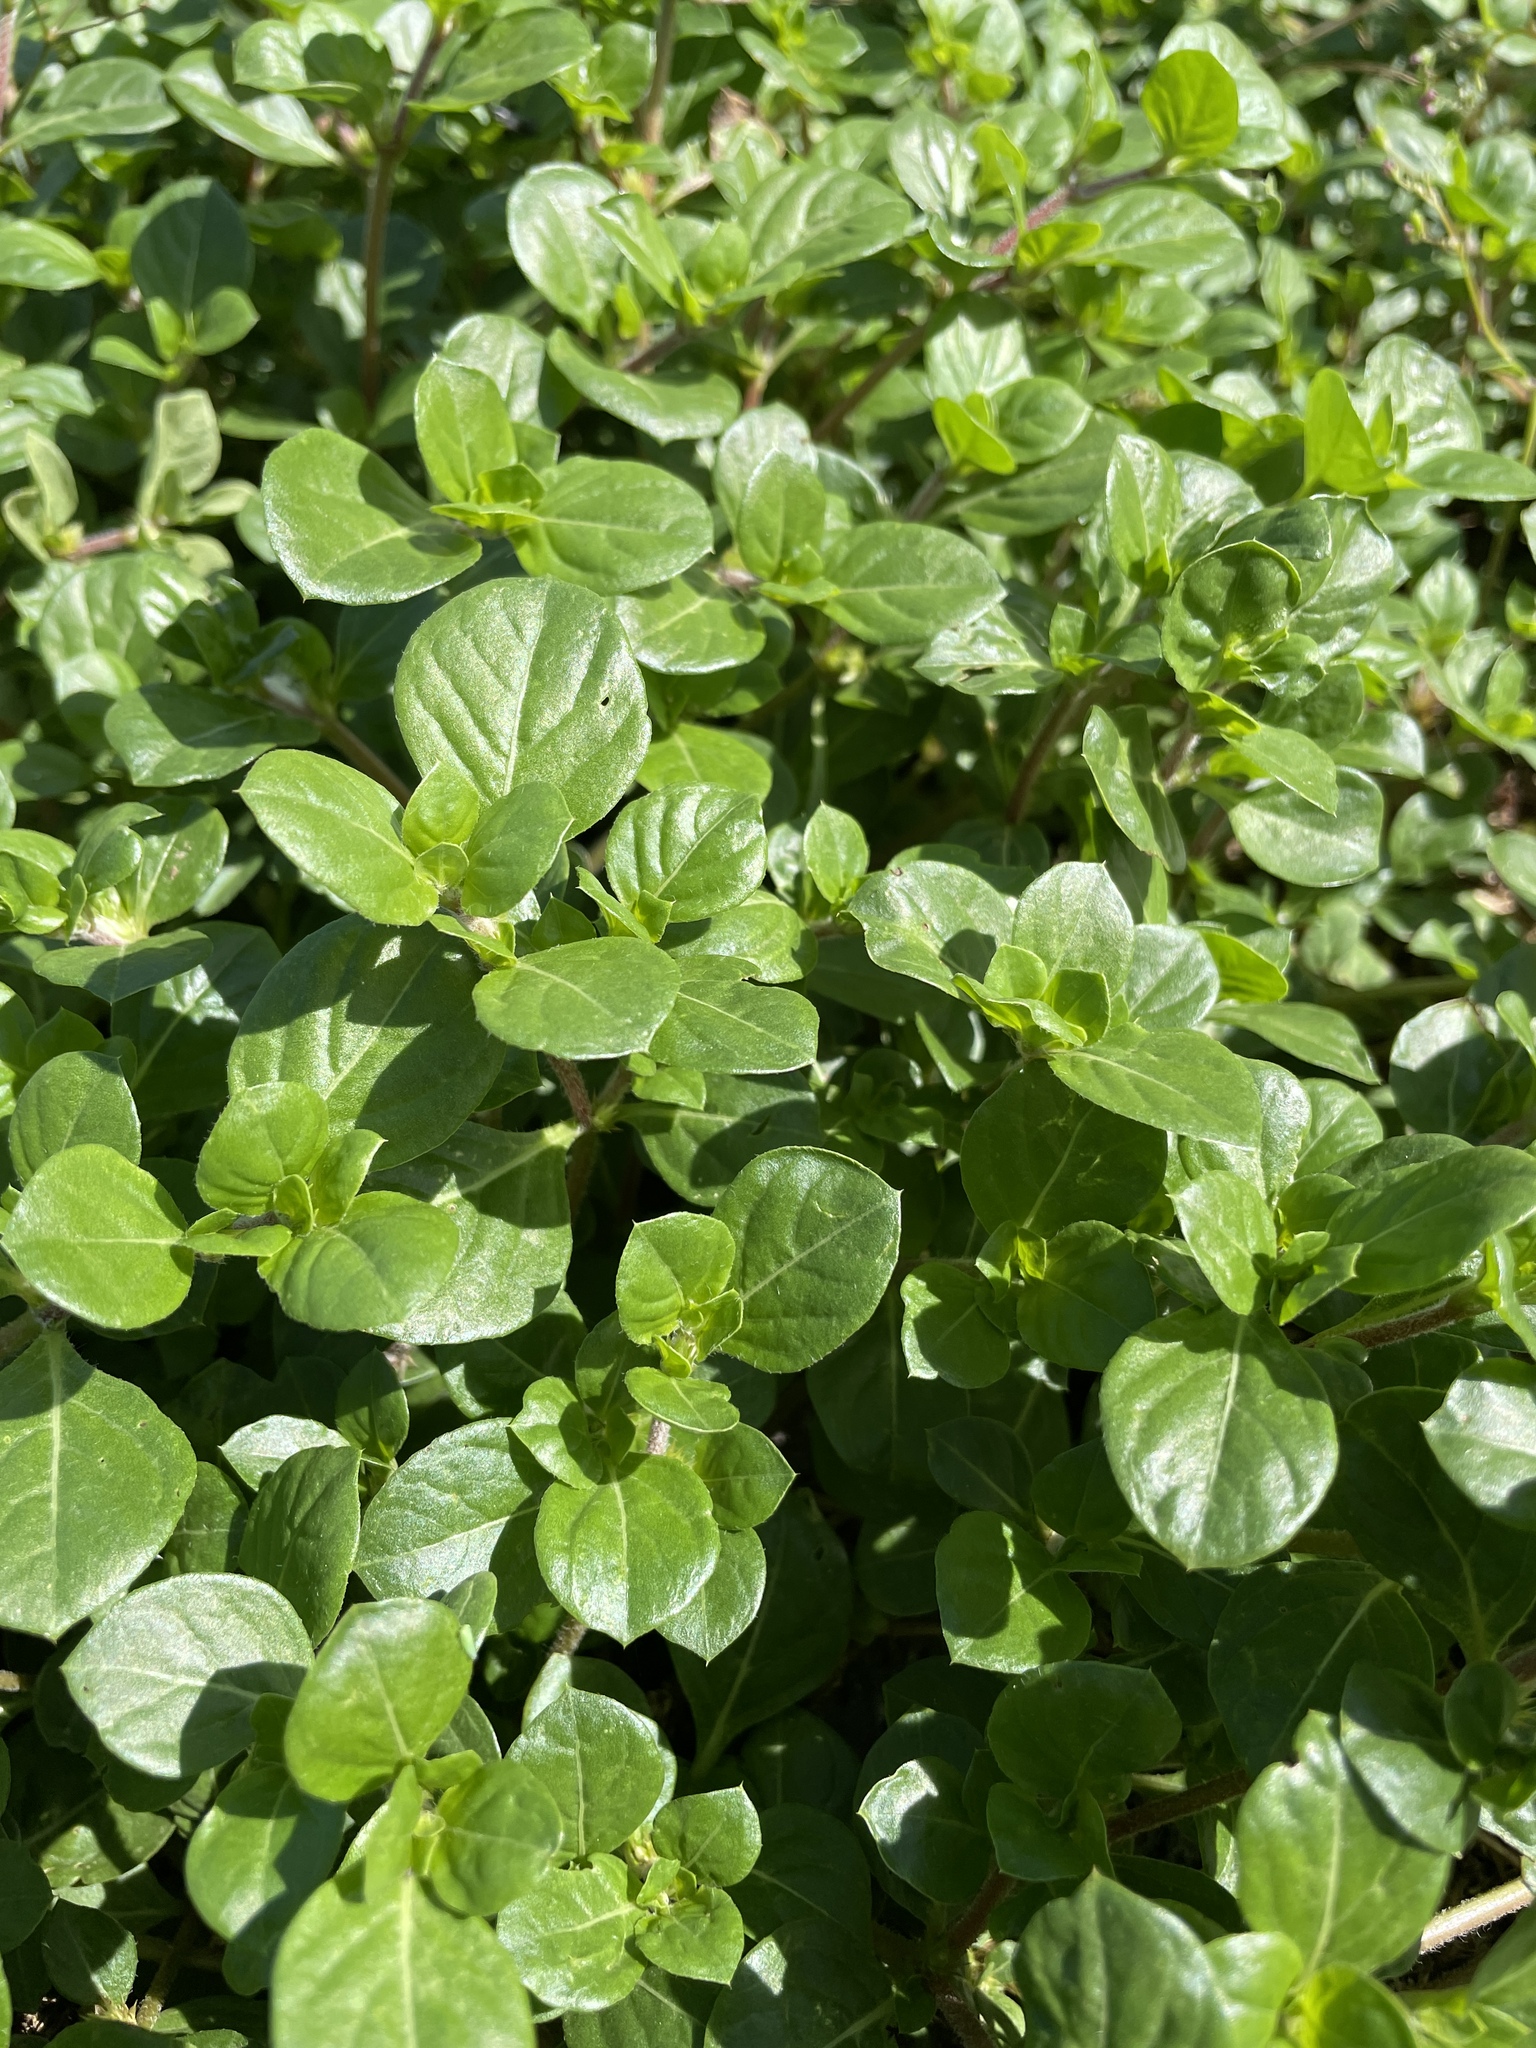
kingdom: Plantae
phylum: Tracheophyta
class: Magnoliopsida
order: Caryophyllales
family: Amaranthaceae
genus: Alternanthera
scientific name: Alternanthera pungens
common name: Khakiweed
